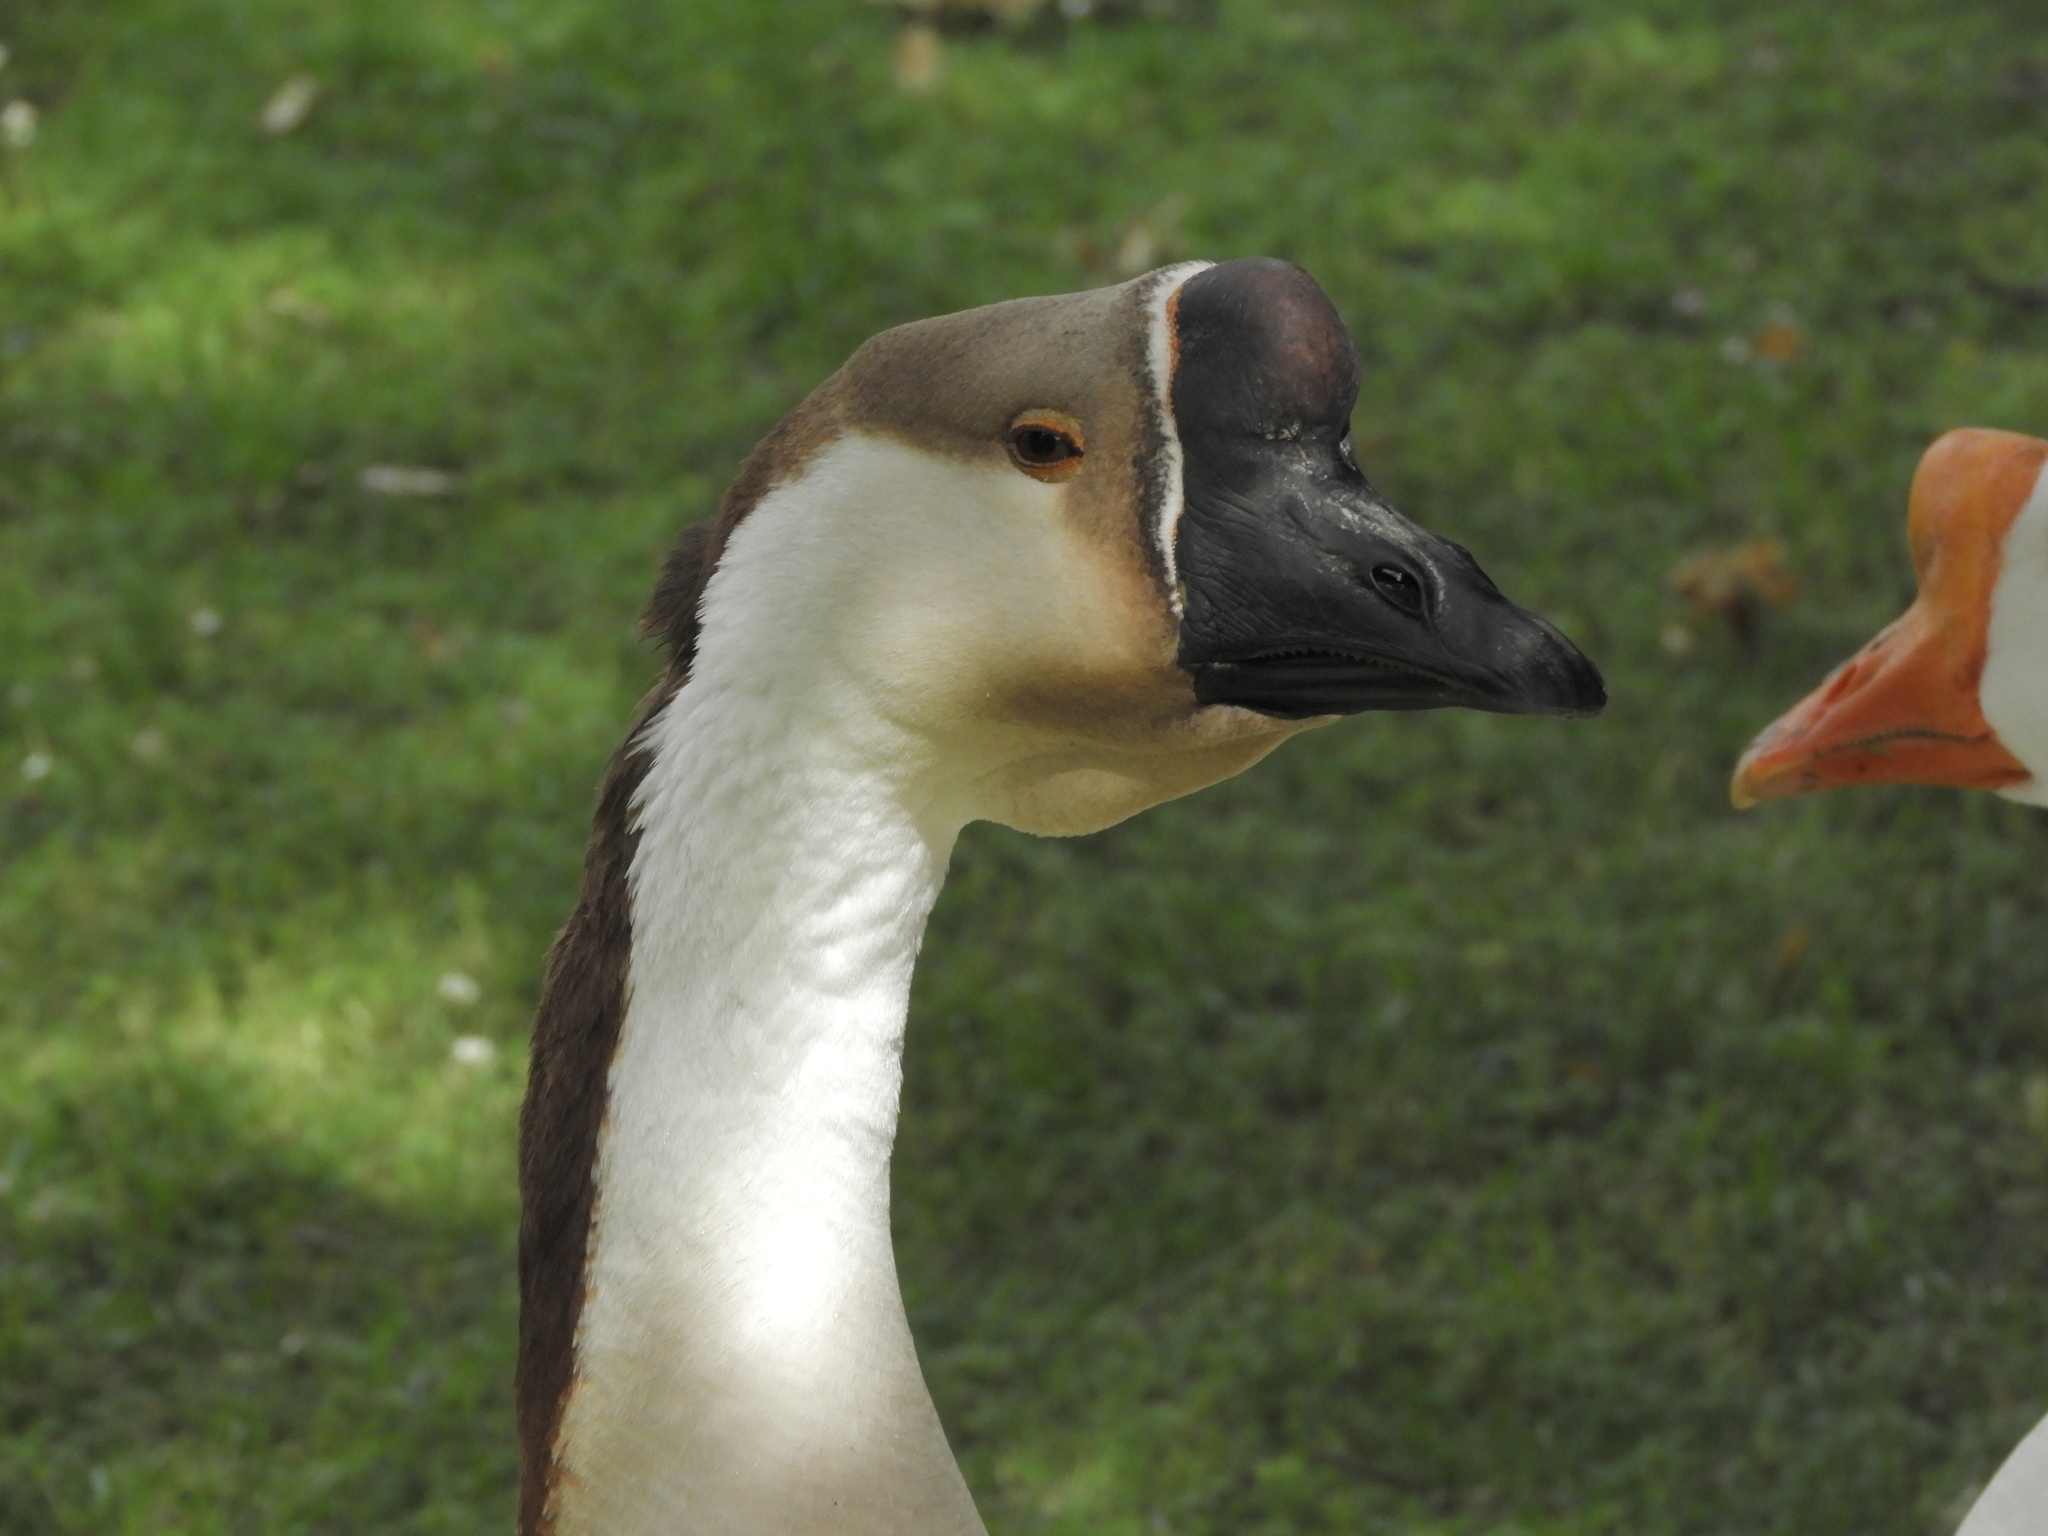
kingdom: Animalia
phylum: Chordata
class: Aves
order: Anseriformes
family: Anatidae
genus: Anser
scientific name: Anser cygnoides
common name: Swan goose
